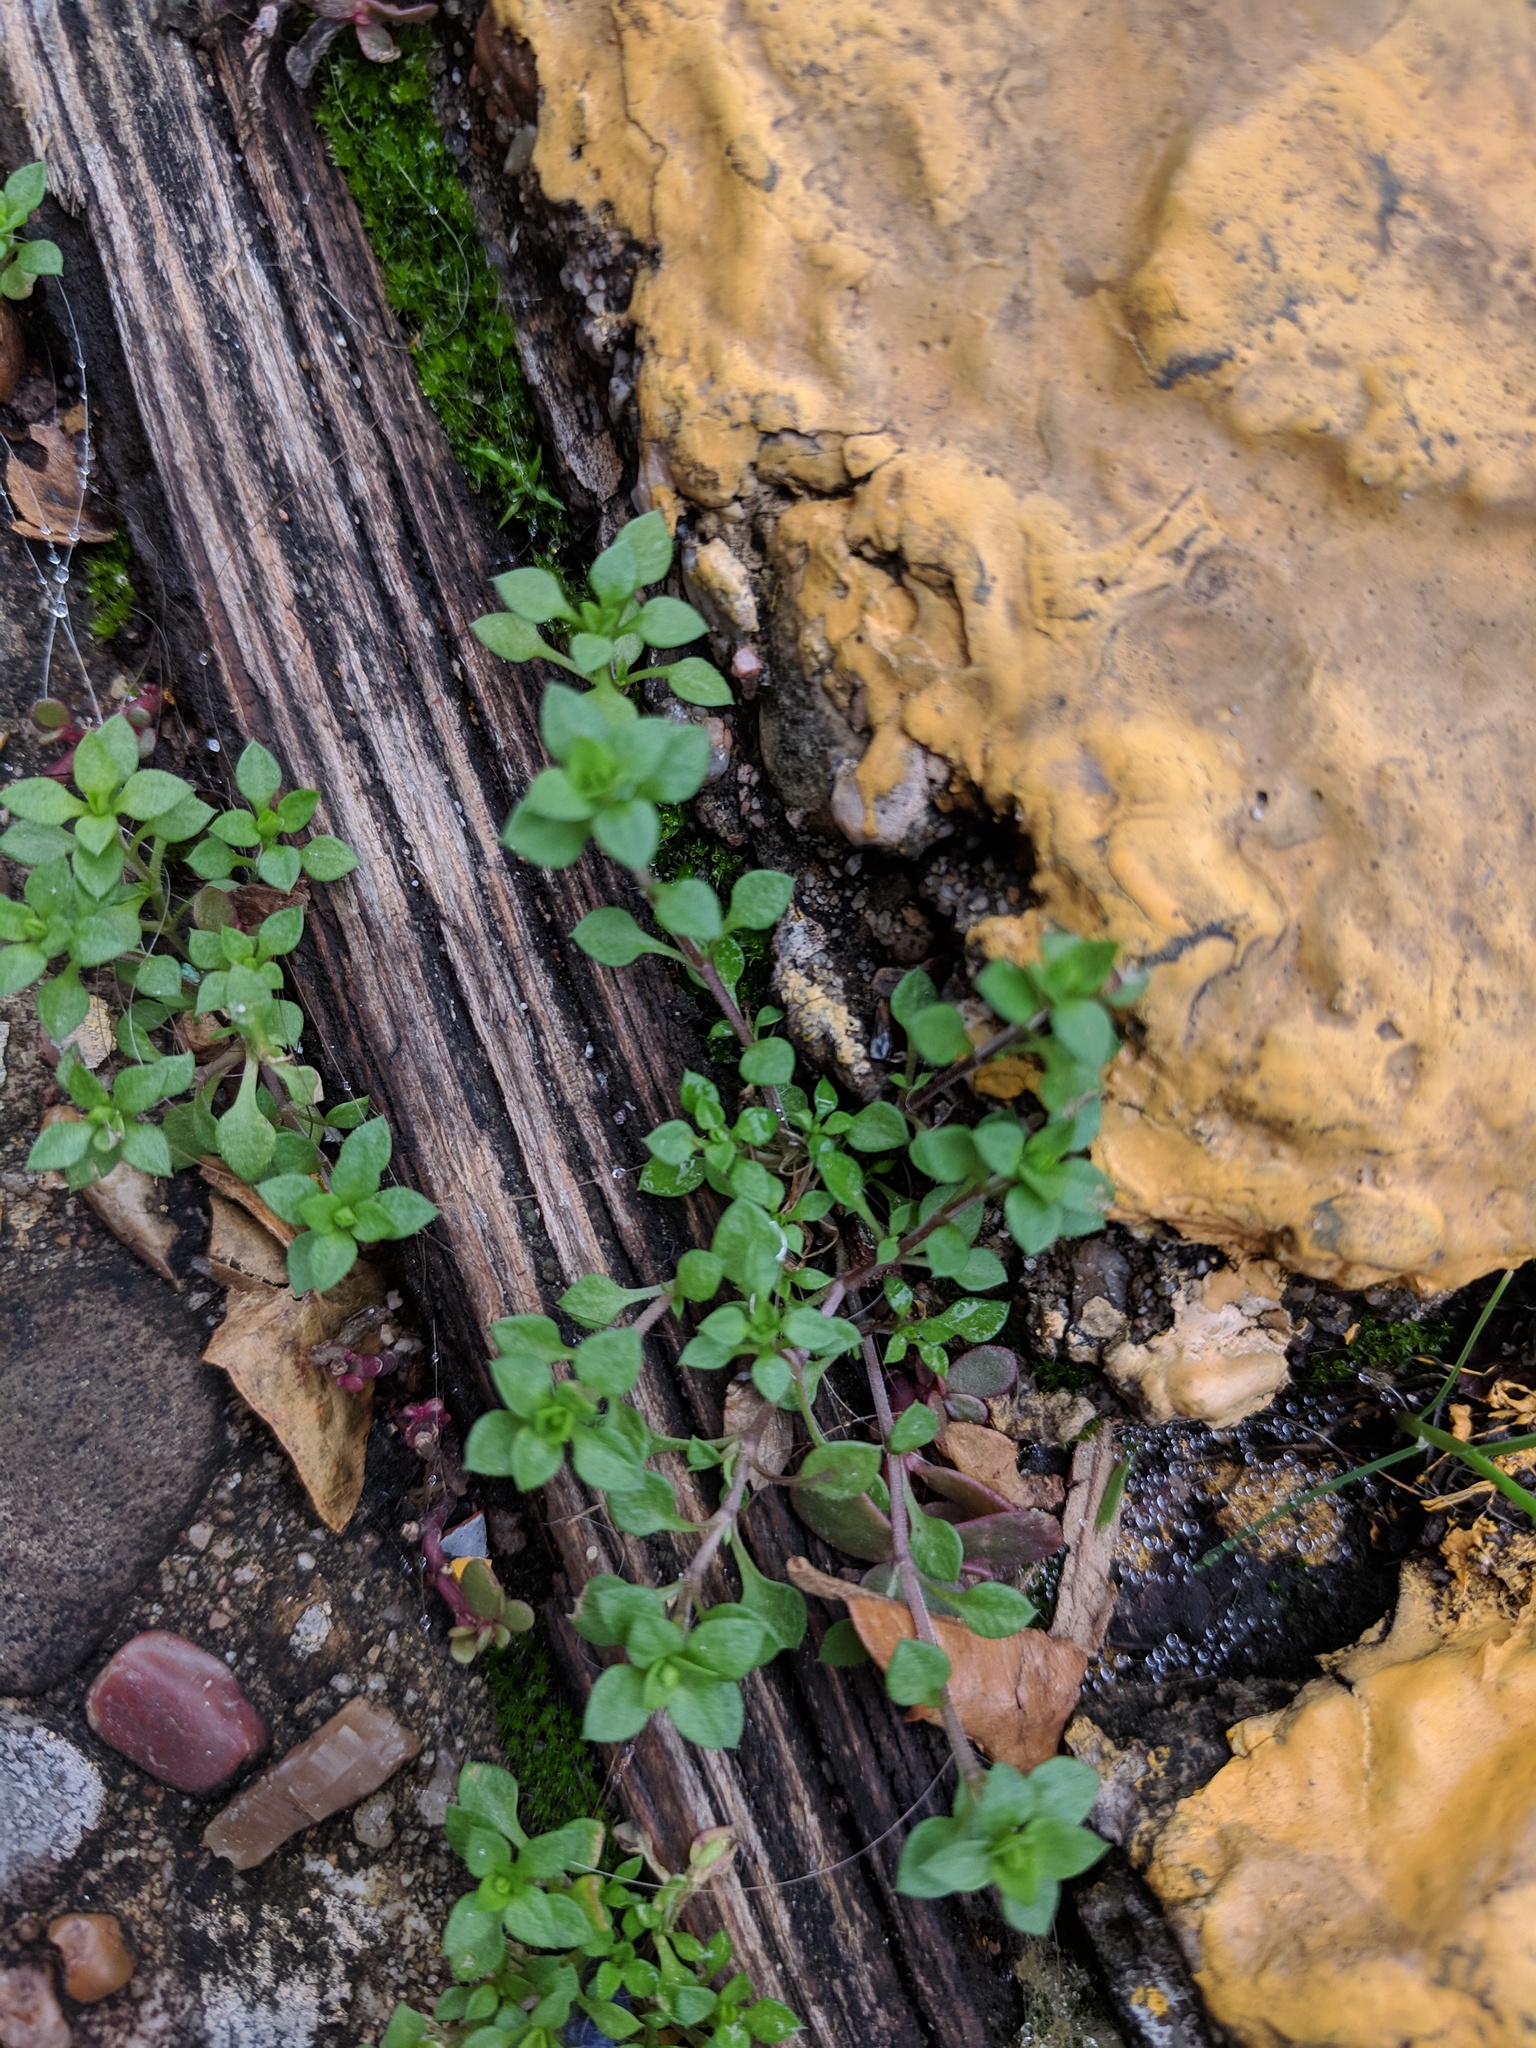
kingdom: Plantae
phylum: Tracheophyta
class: Magnoliopsida
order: Caryophyllales
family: Caryophyllaceae
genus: Stellaria
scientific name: Stellaria media
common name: Common chickweed
